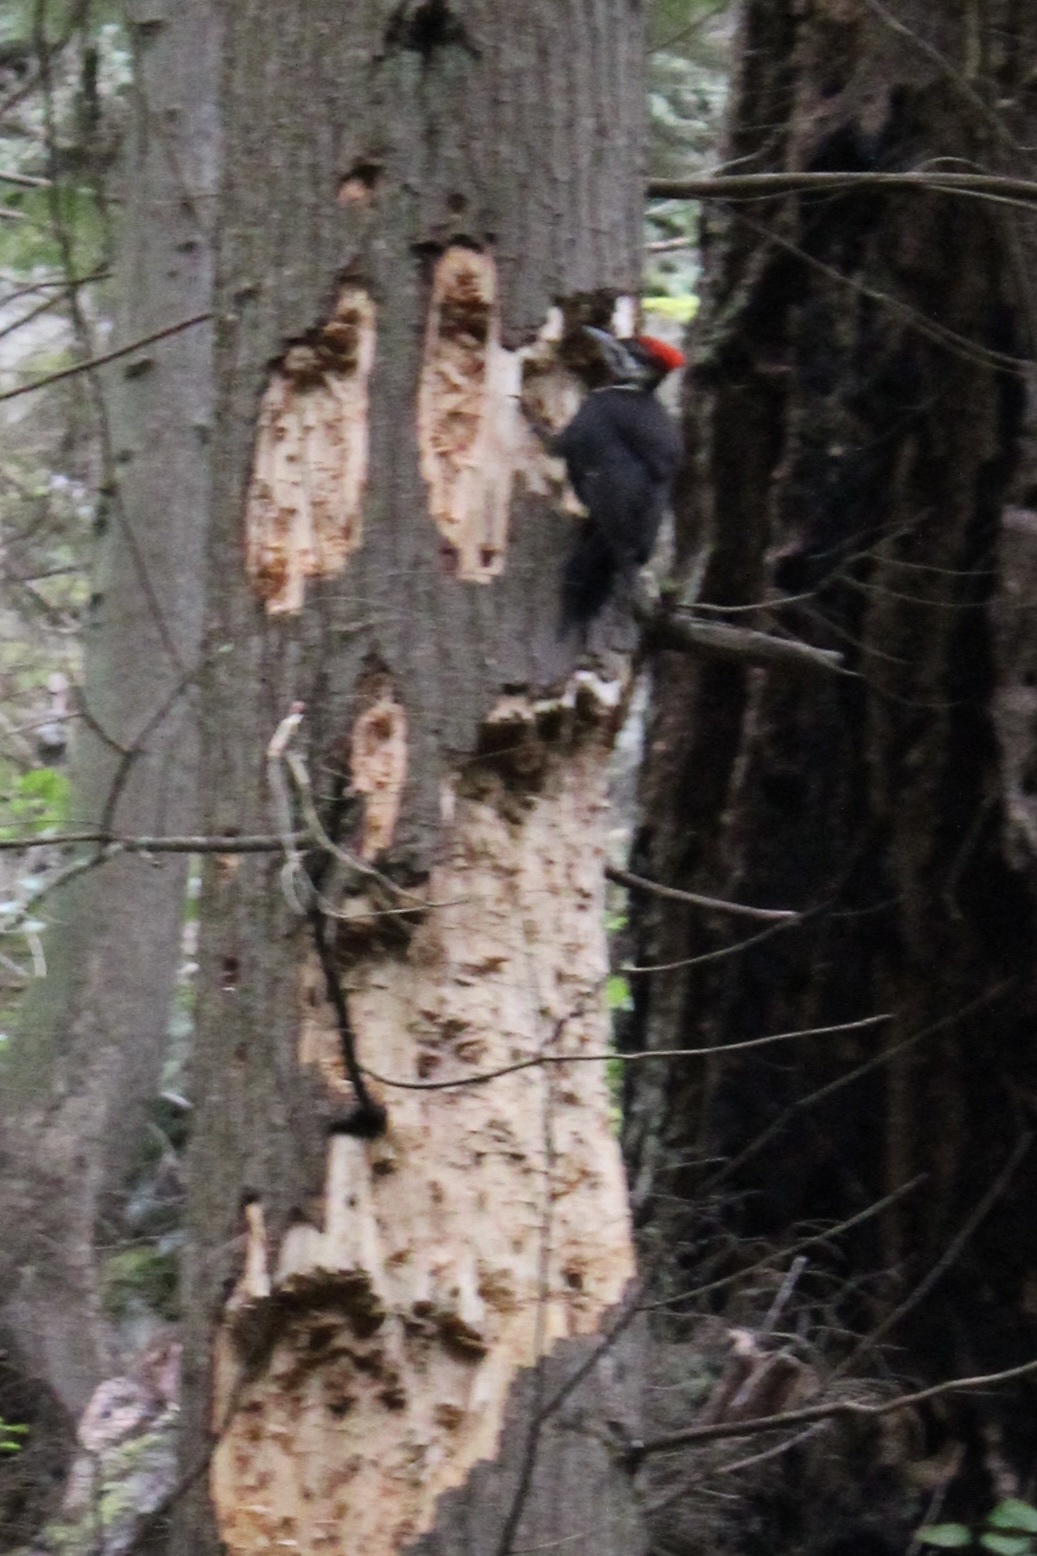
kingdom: Animalia
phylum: Chordata
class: Aves
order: Piciformes
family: Picidae
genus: Dryocopus
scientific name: Dryocopus pileatus
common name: Pileated woodpecker
